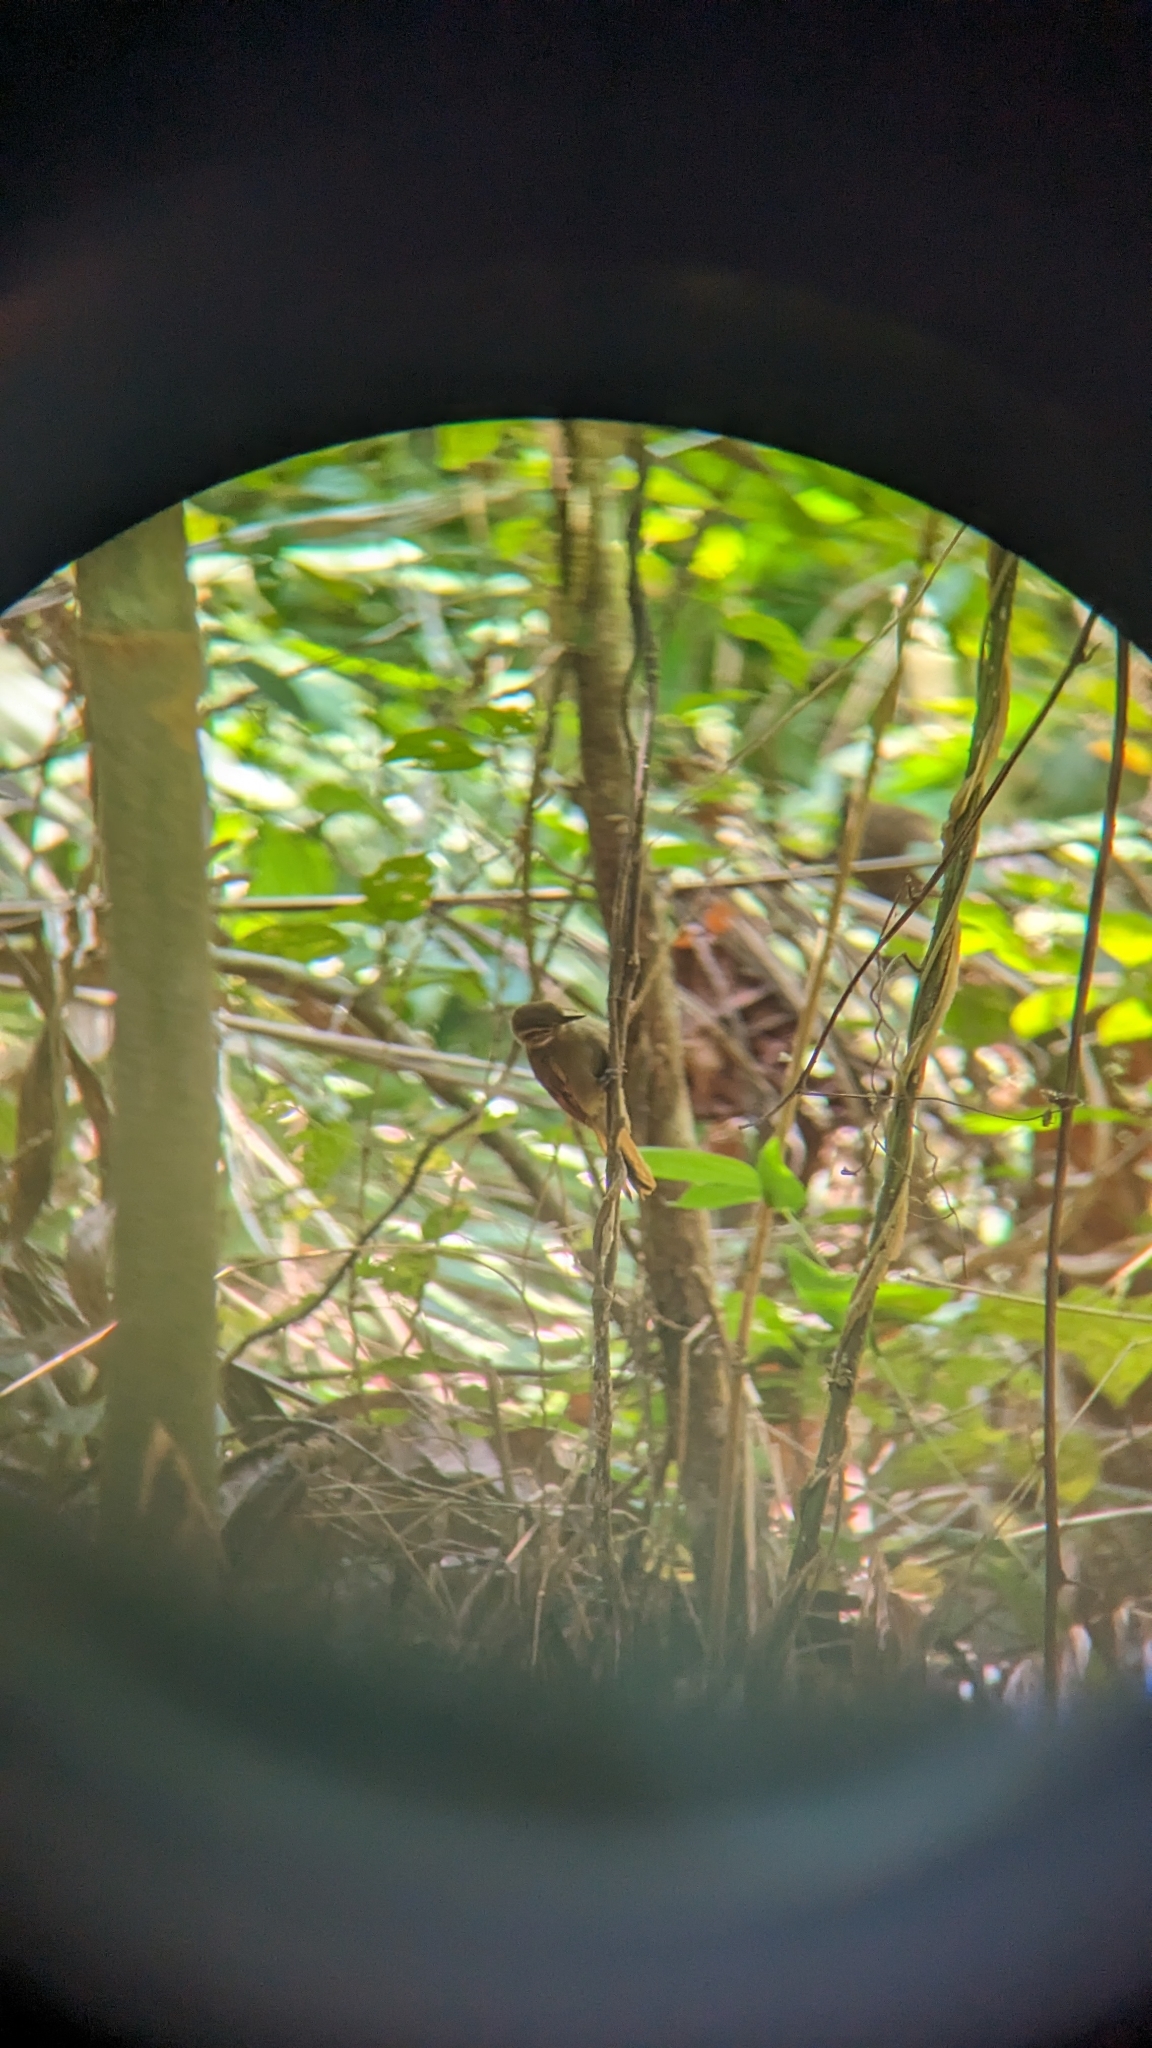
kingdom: Animalia
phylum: Chordata
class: Aves
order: Passeriformes
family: Furnariidae
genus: Xenops
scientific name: Xenops minutus
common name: Plain xenops
